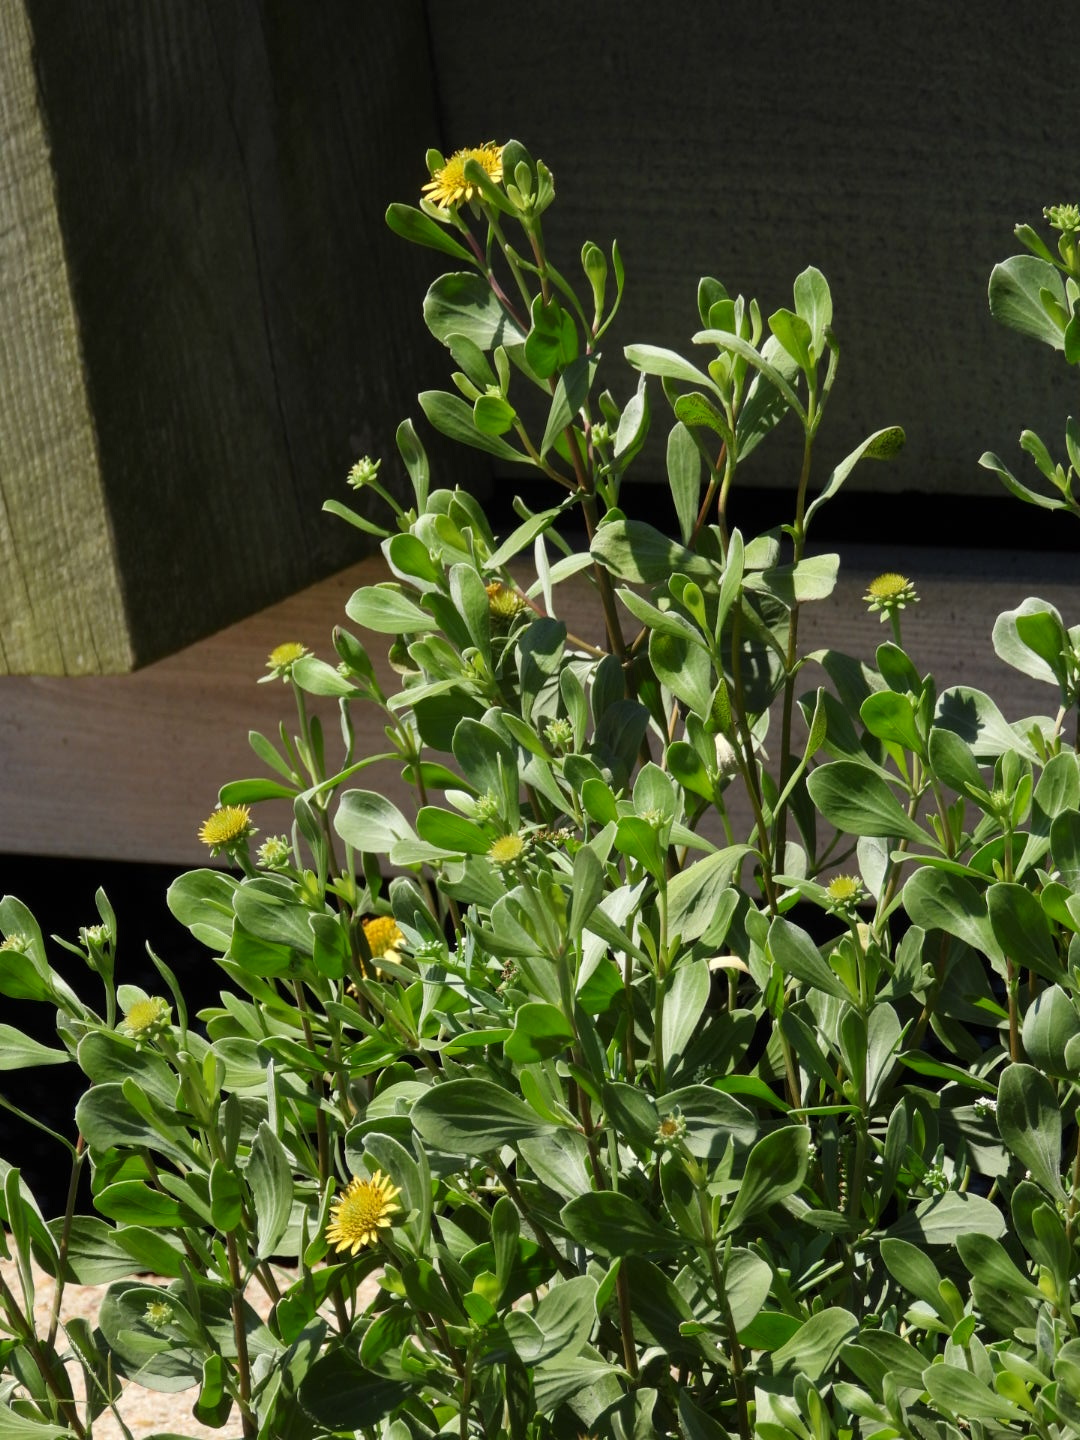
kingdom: Plantae
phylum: Tracheophyta
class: Magnoliopsida
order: Asterales
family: Asteraceae
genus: Borrichia
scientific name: Borrichia frutescens
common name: Sea oxeye
